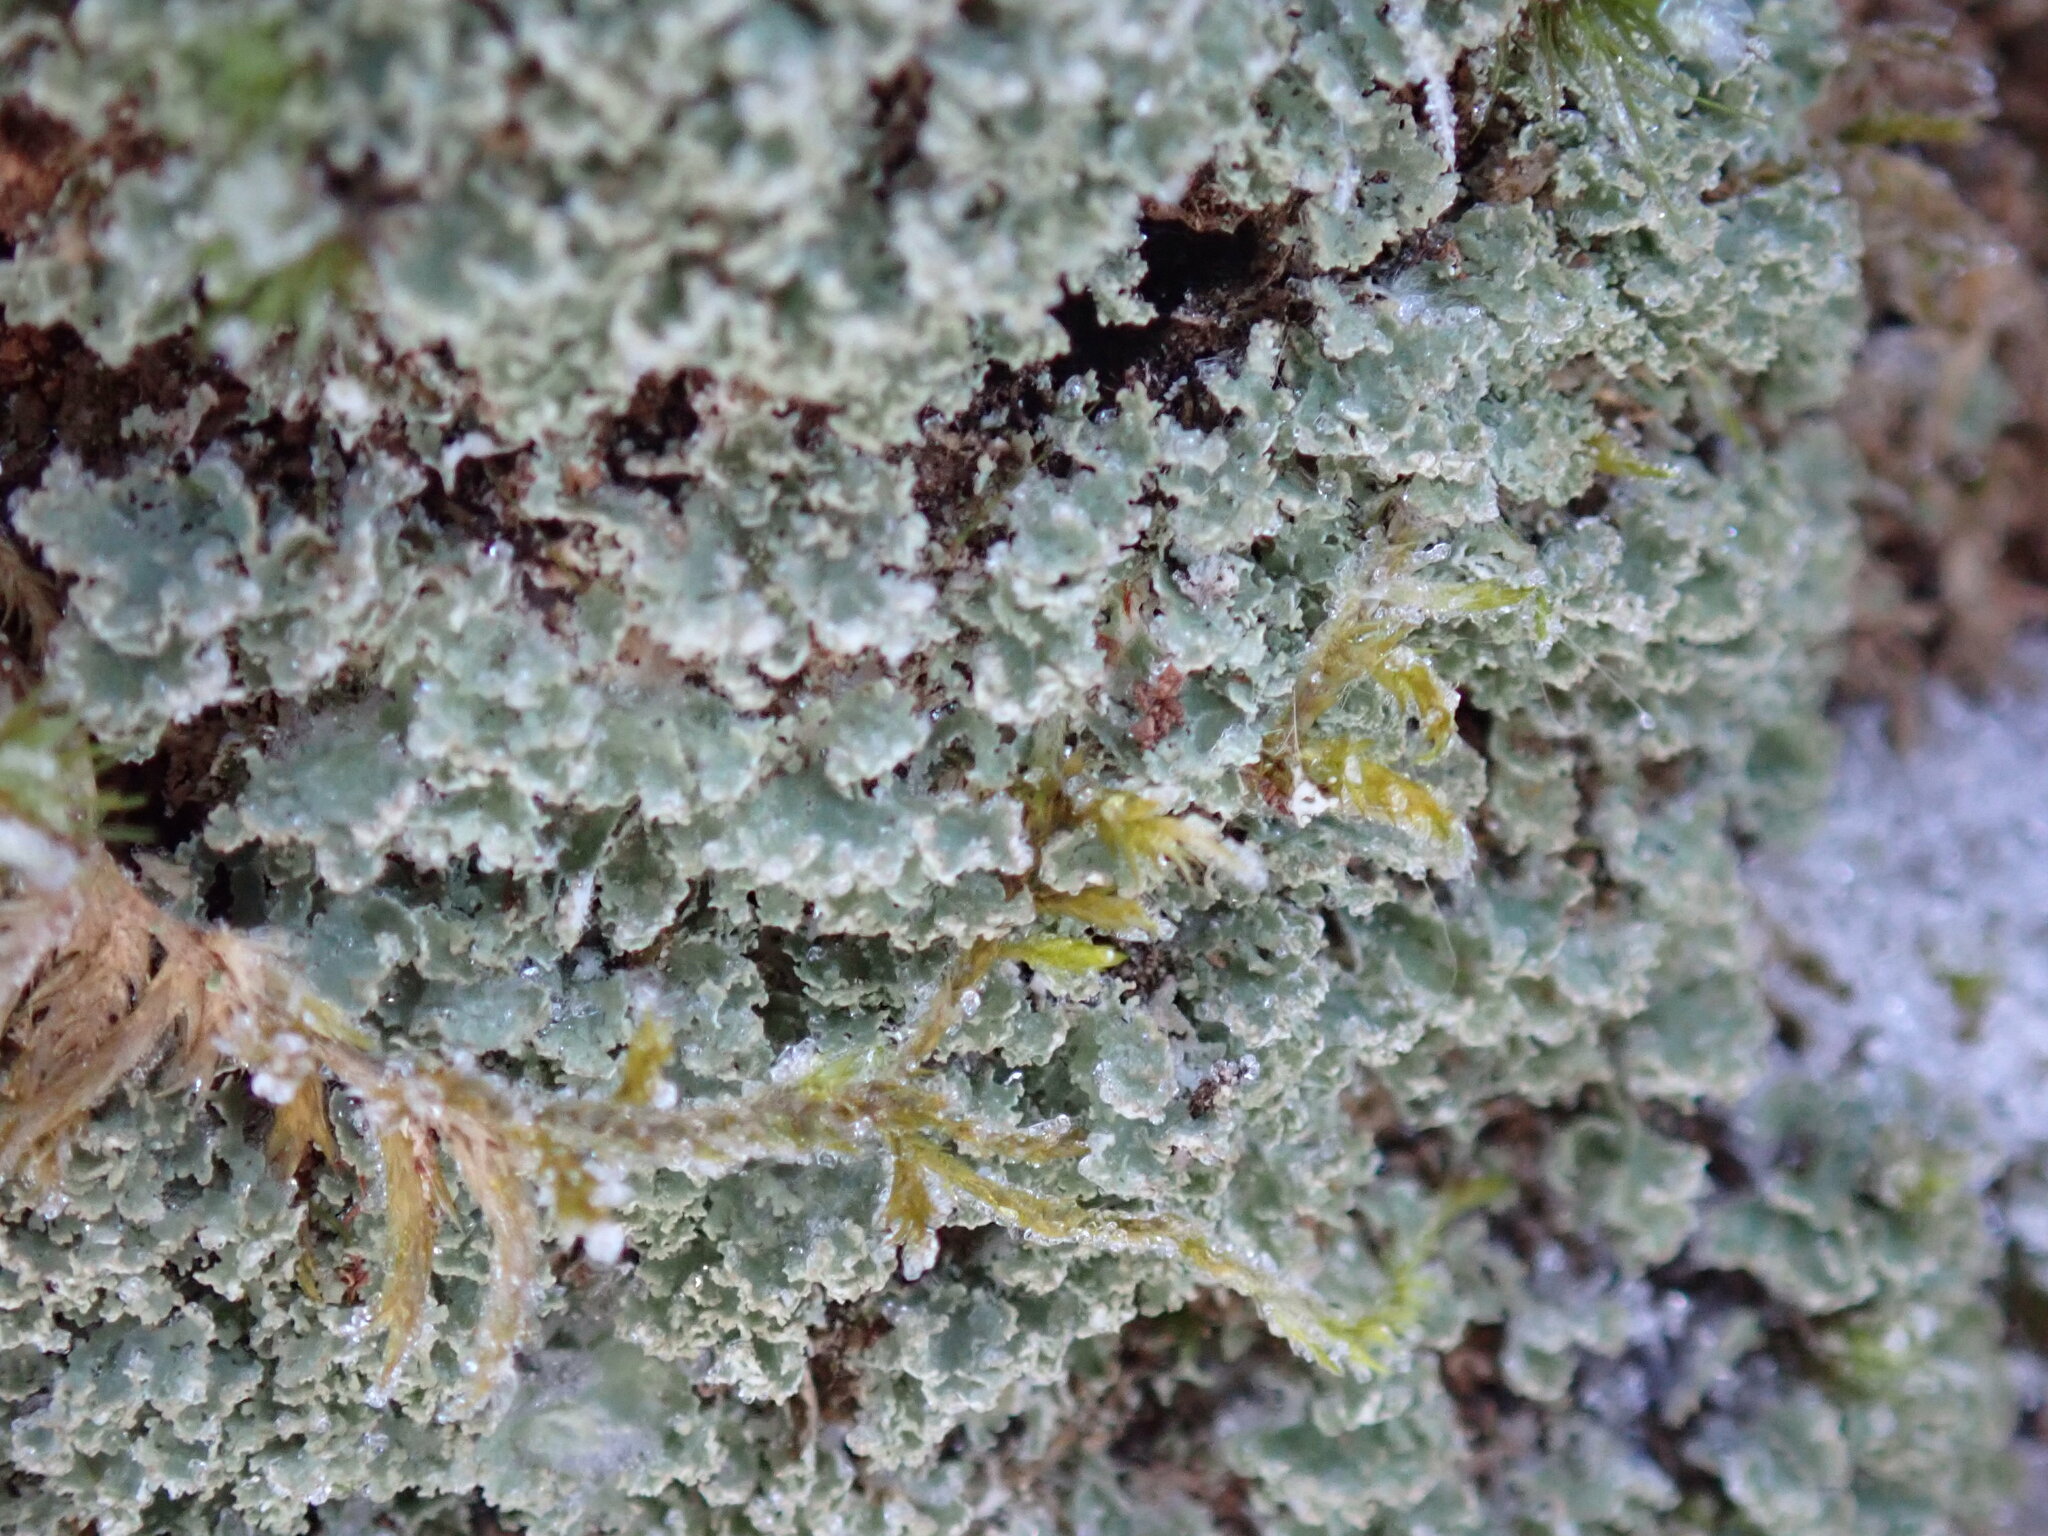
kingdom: Fungi
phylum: Ascomycota
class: Lecanoromycetes
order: Lecanorales
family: Cladoniaceae
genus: Cladonia
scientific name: Cladonia caespiticia
